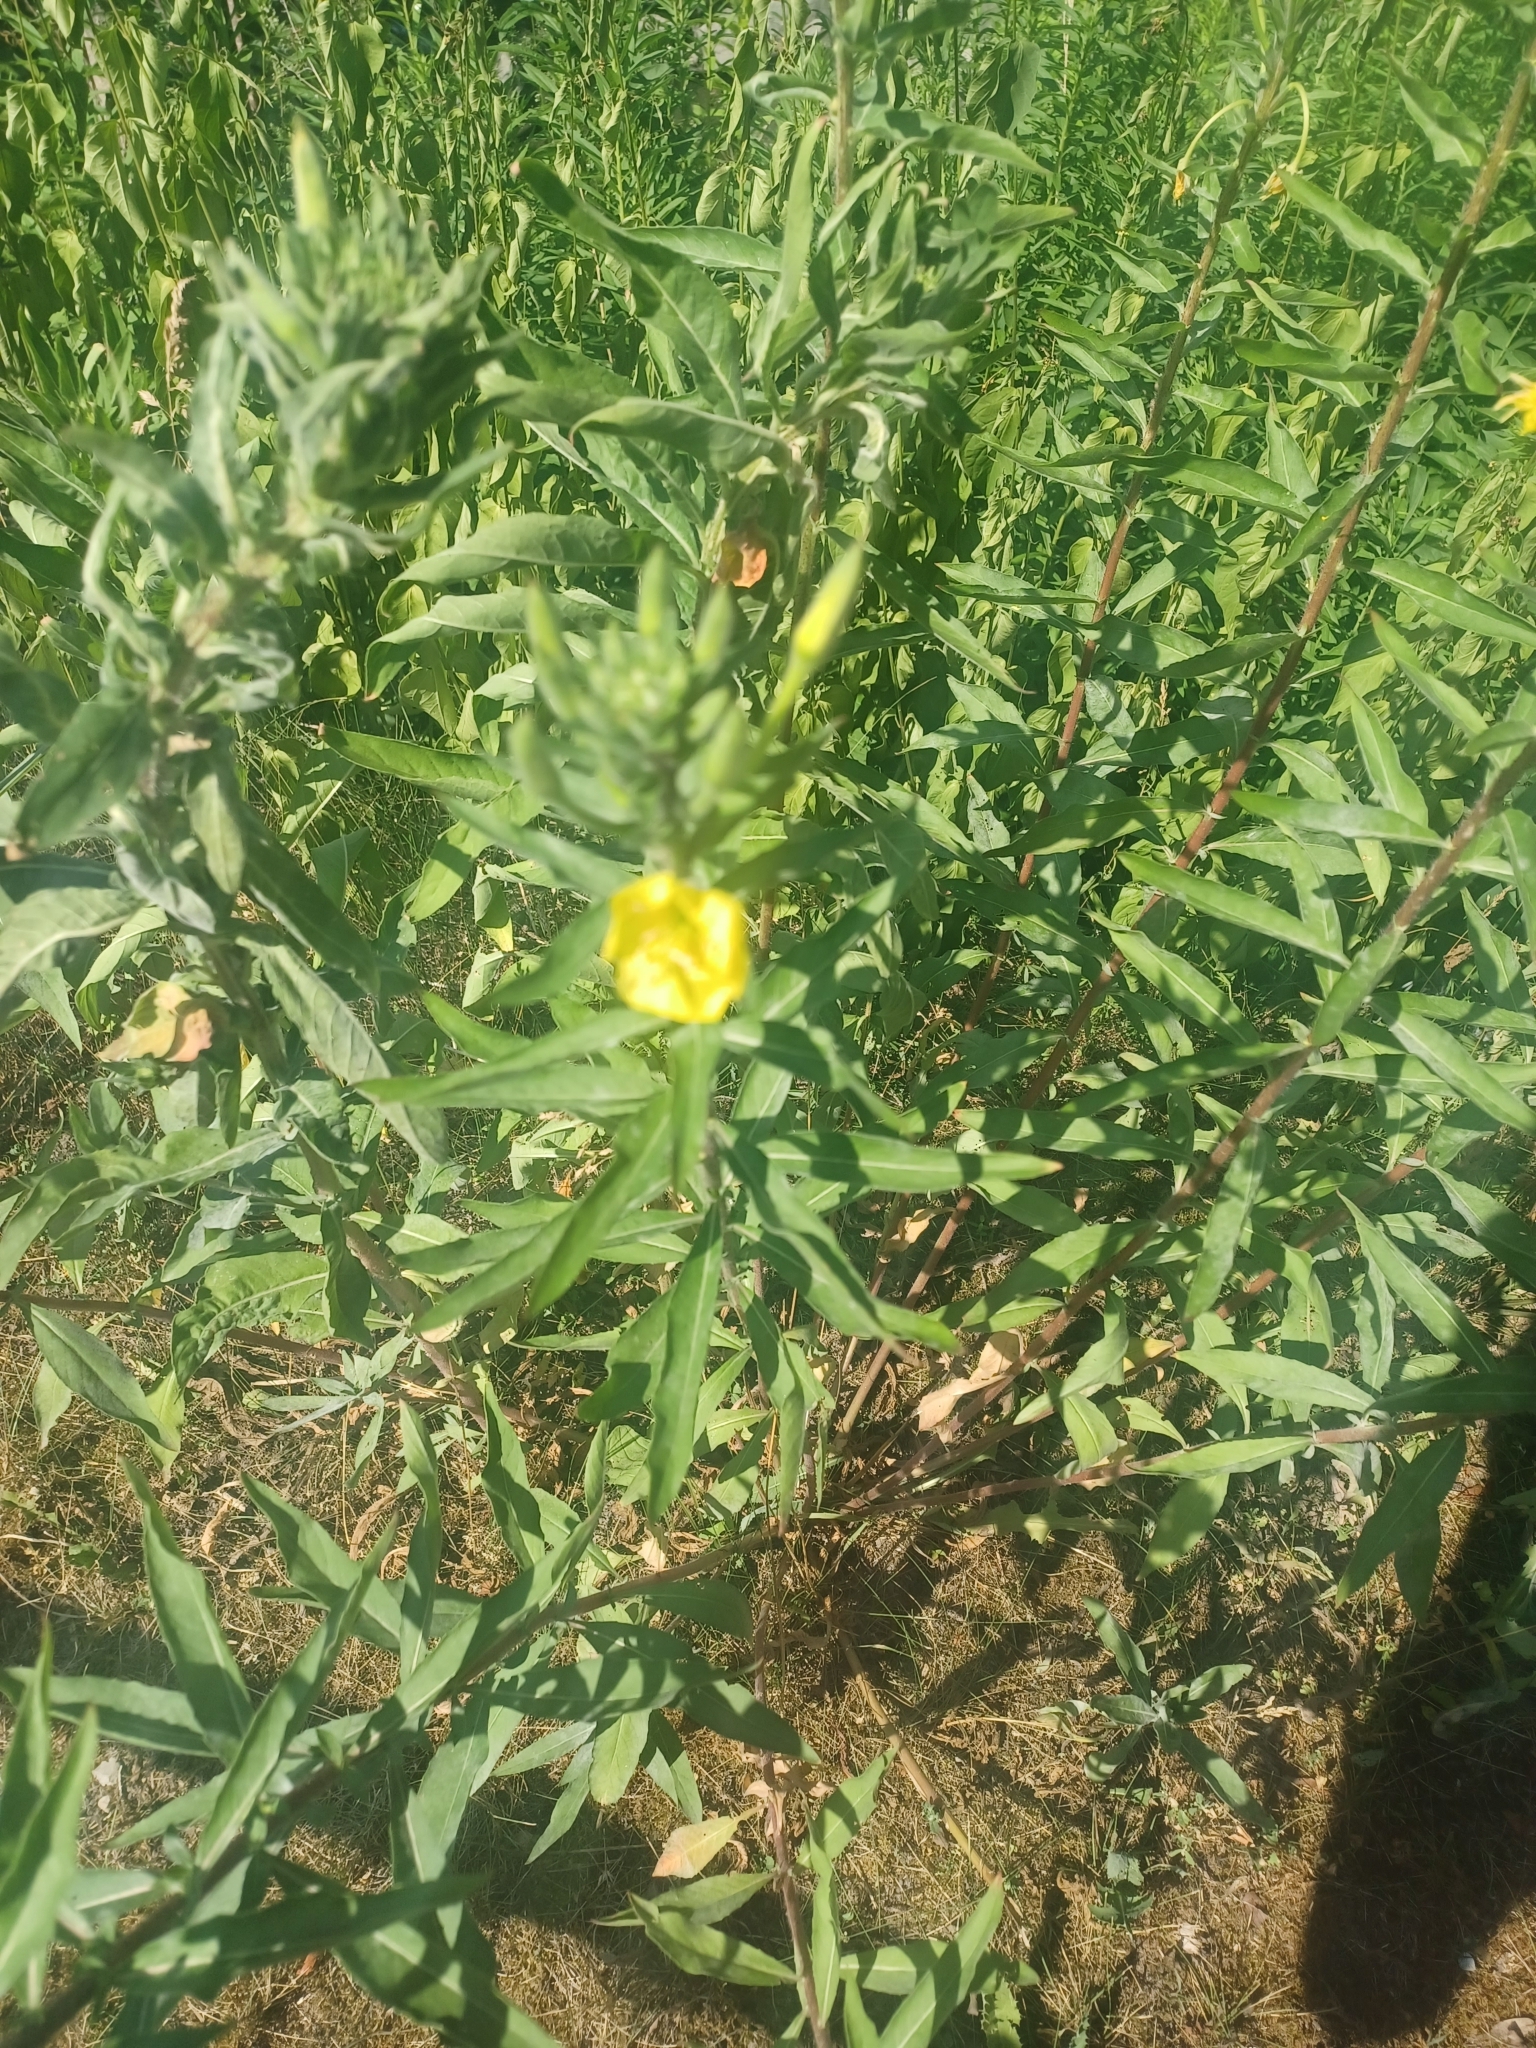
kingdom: Plantae
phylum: Tracheophyta
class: Magnoliopsida
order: Myrtales
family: Onagraceae
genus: Oenothera
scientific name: Oenothera parviflora
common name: Least evening-primrose
